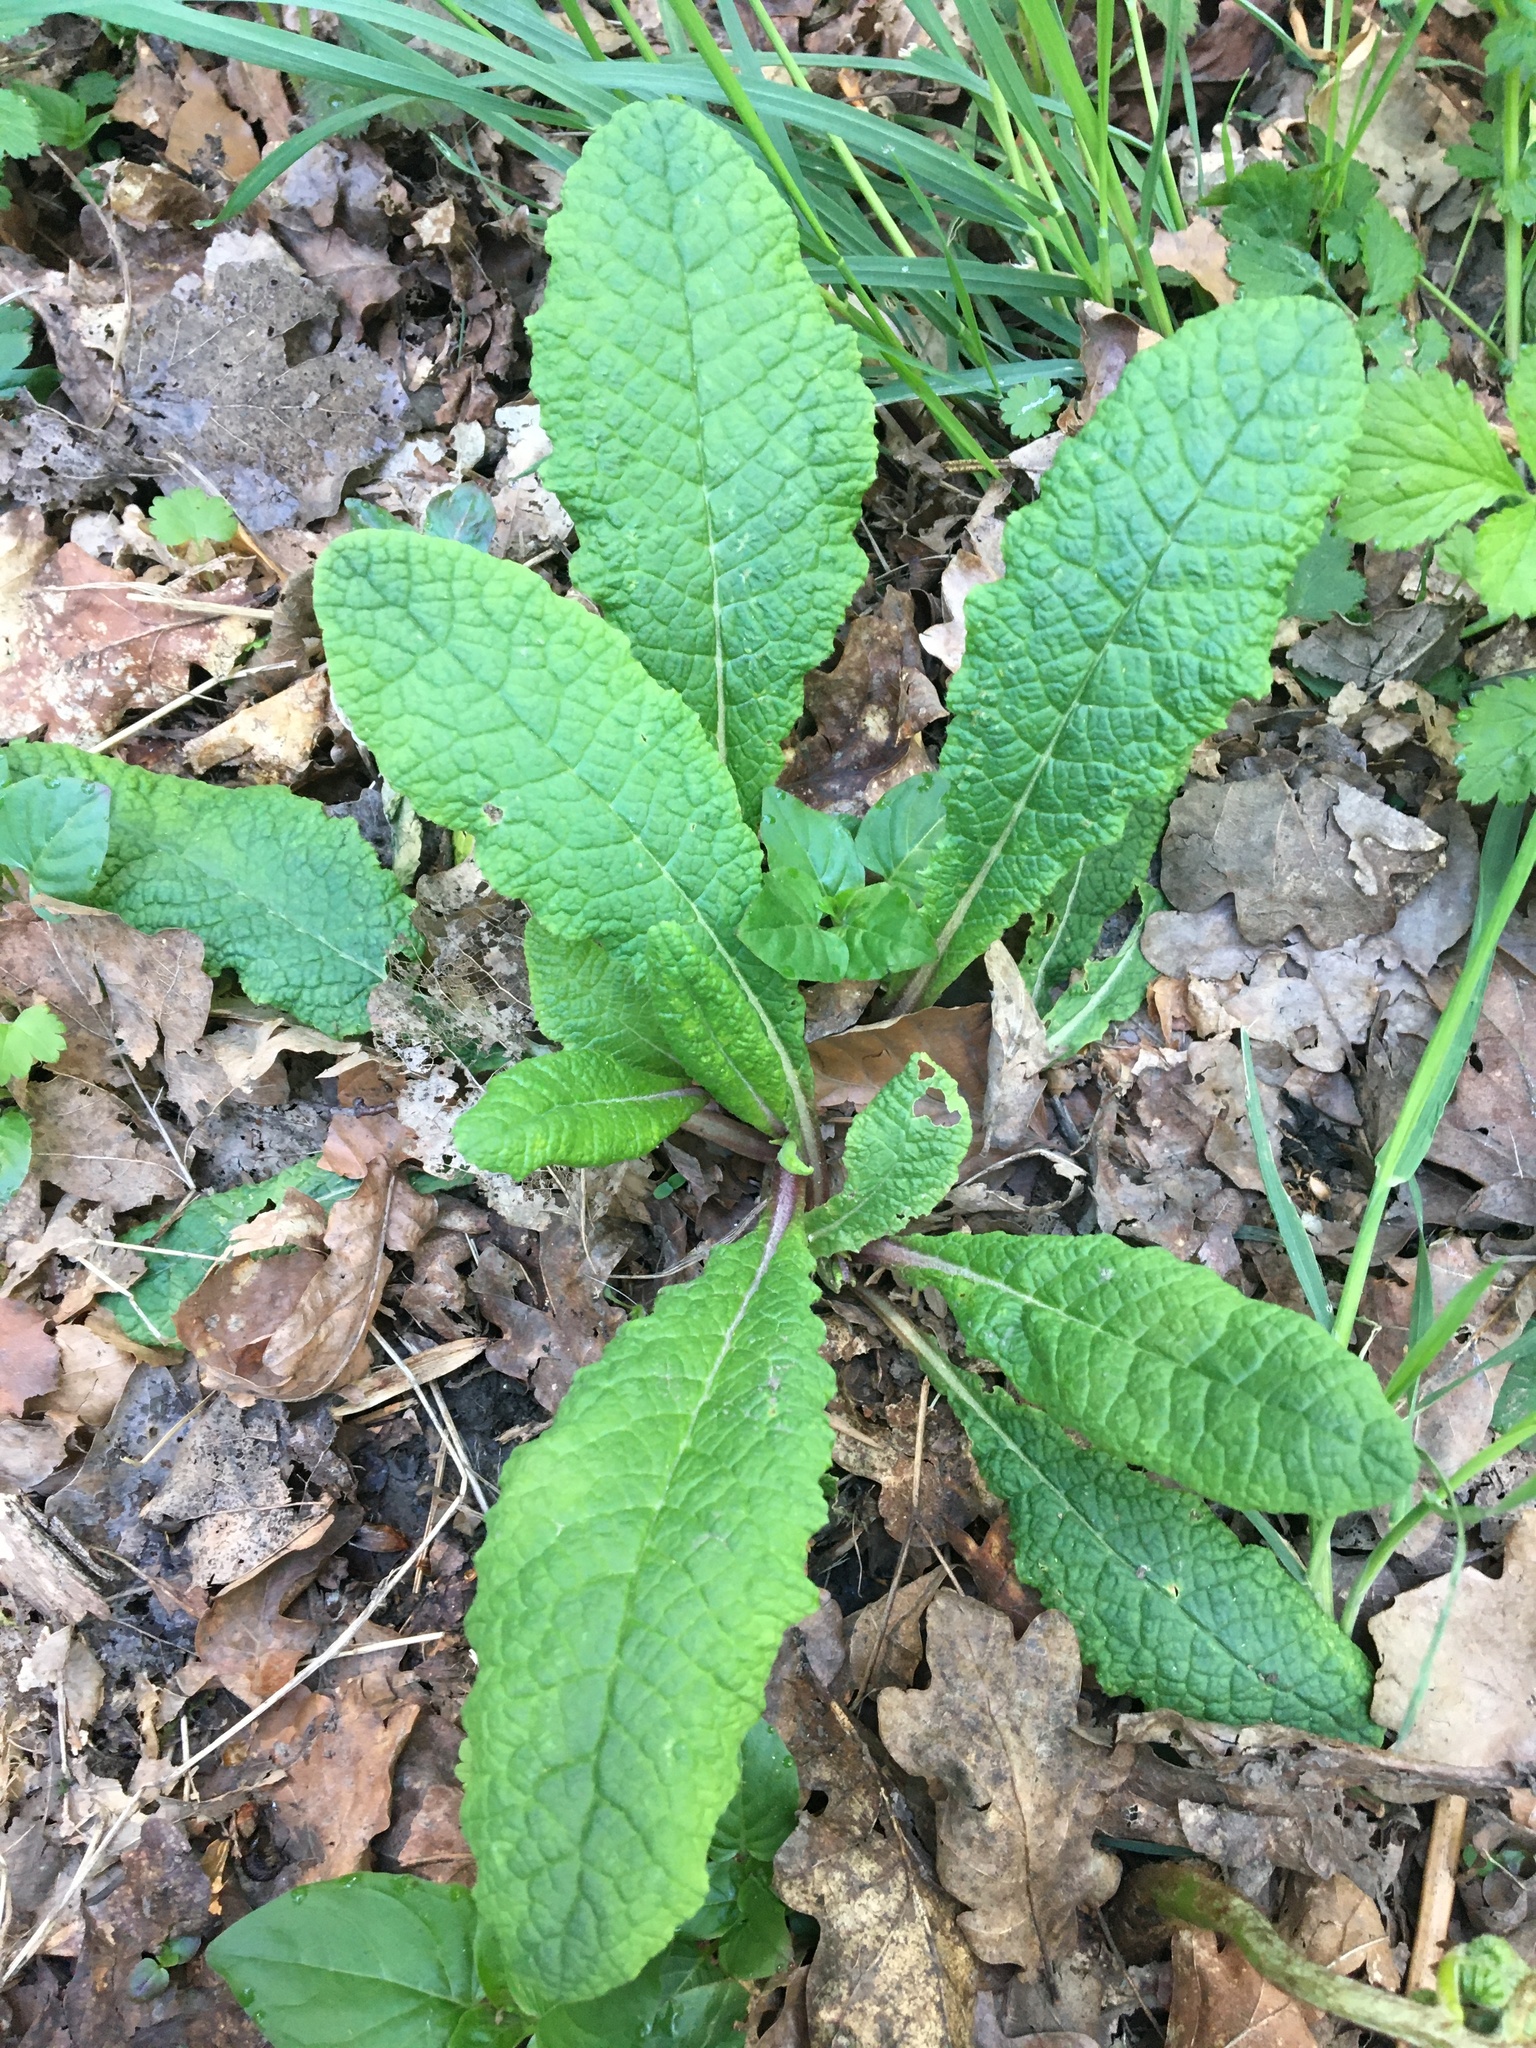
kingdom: Plantae
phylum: Tracheophyta
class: Magnoliopsida
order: Ericales
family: Primulaceae
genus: Primula
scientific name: Primula vulgaris
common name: Primrose
